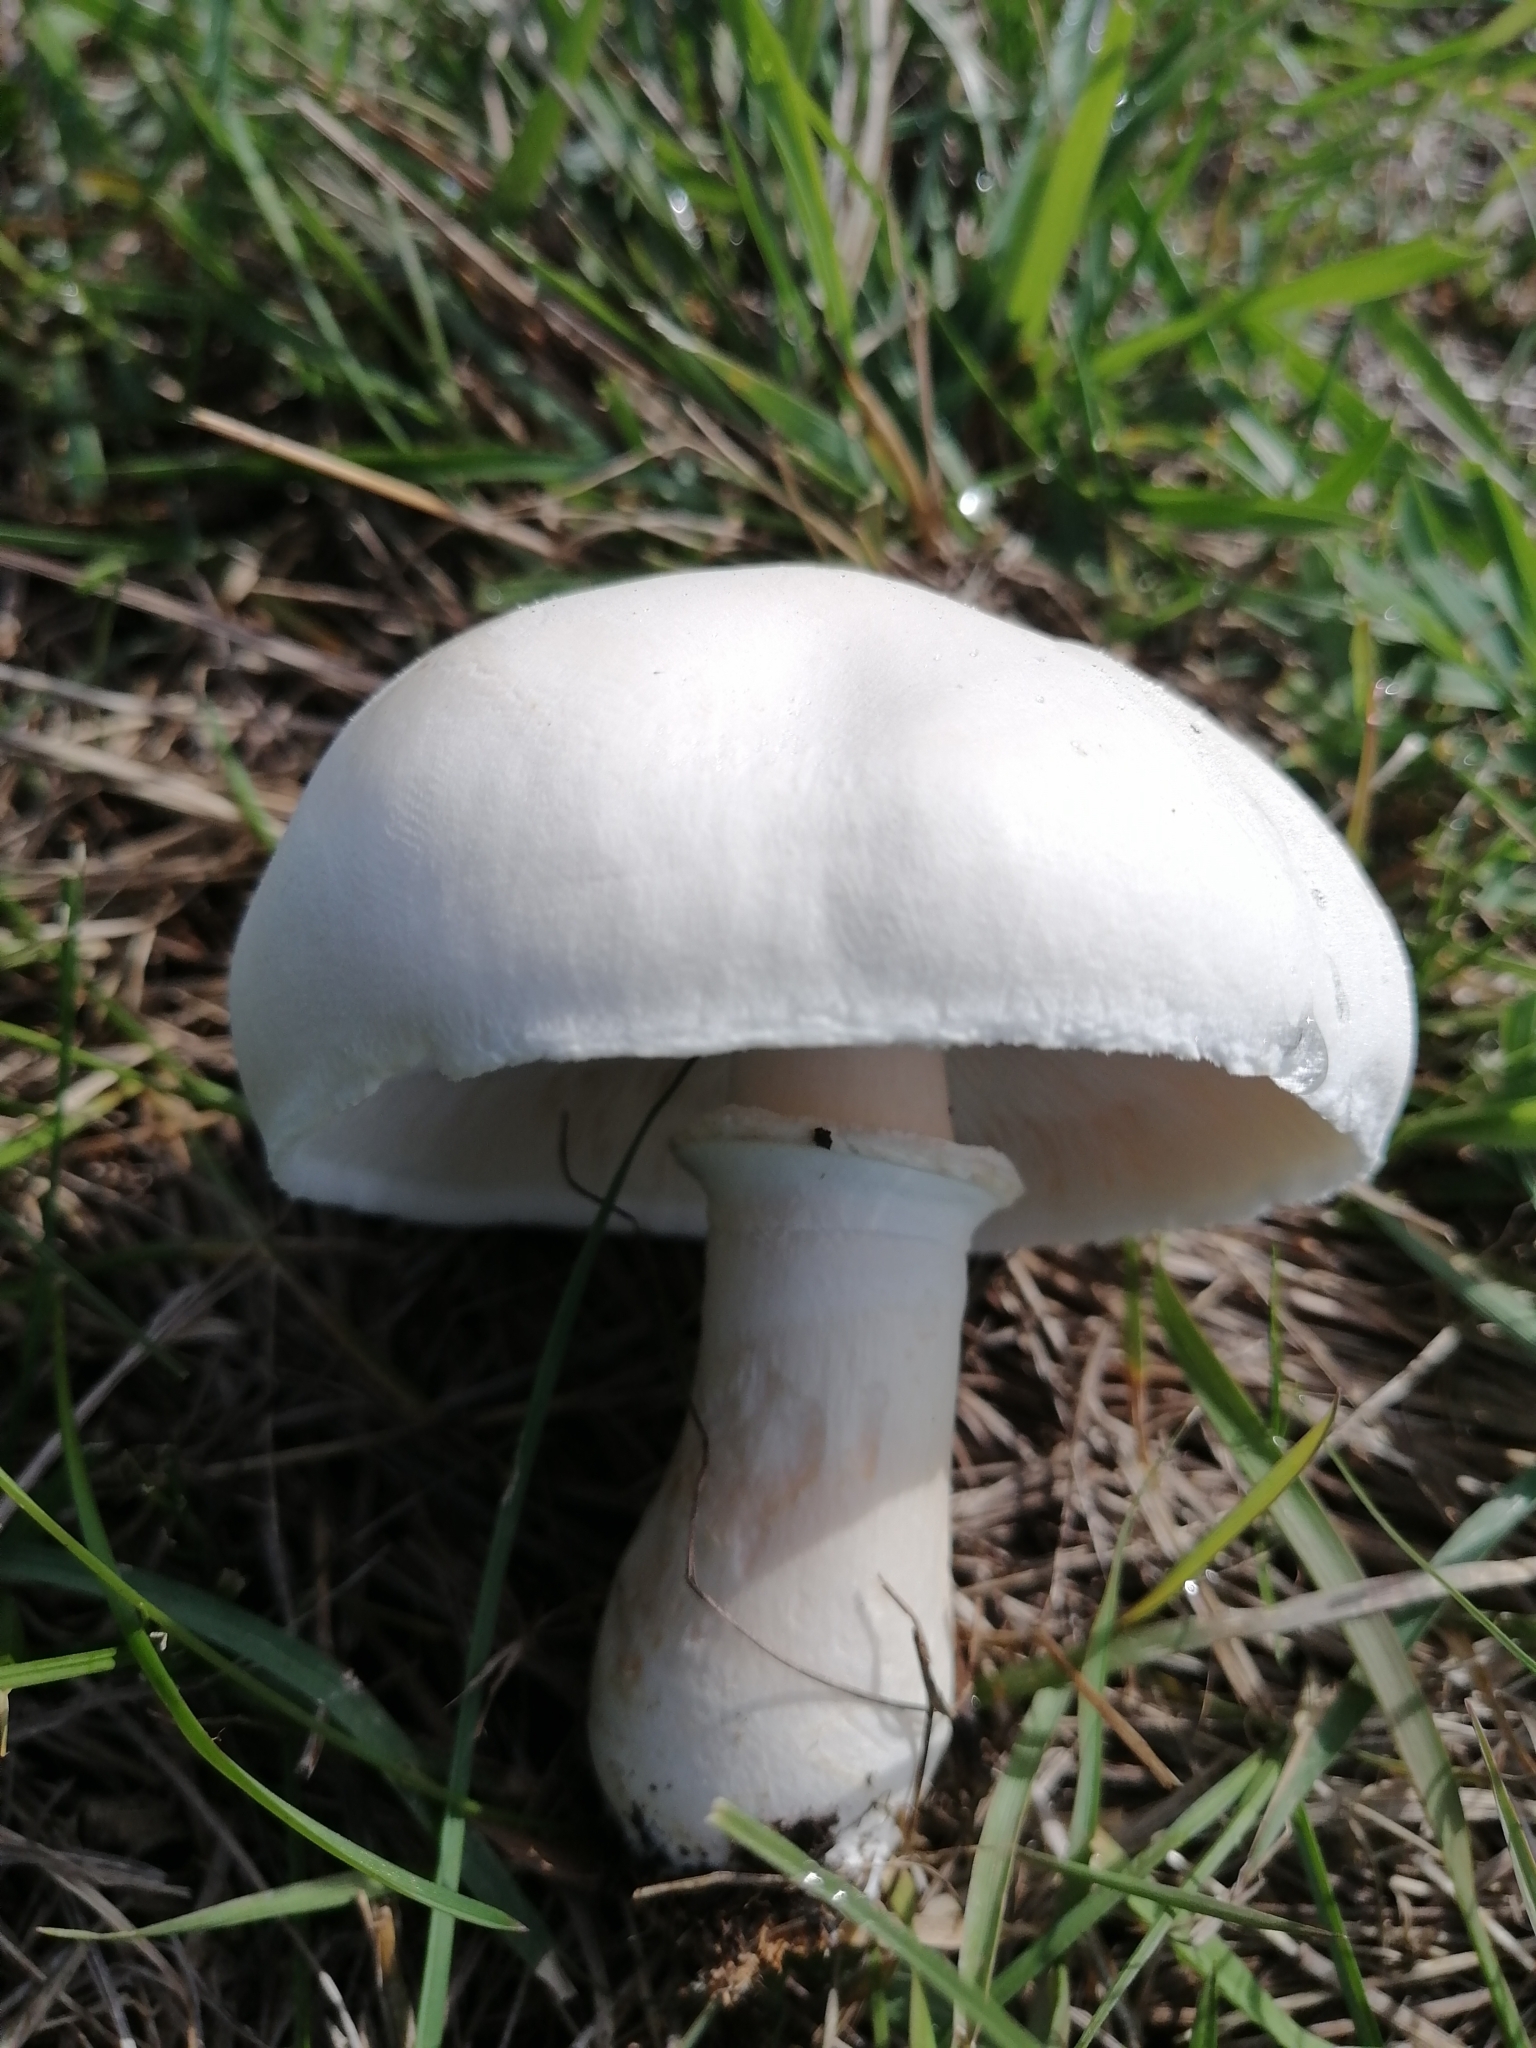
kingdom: Fungi
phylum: Basidiomycota
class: Agaricomycetes
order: Agaricales
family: Agaricaceae
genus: Leucoagaricus
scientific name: Leucoagaricus leucothites
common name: White dapperling
